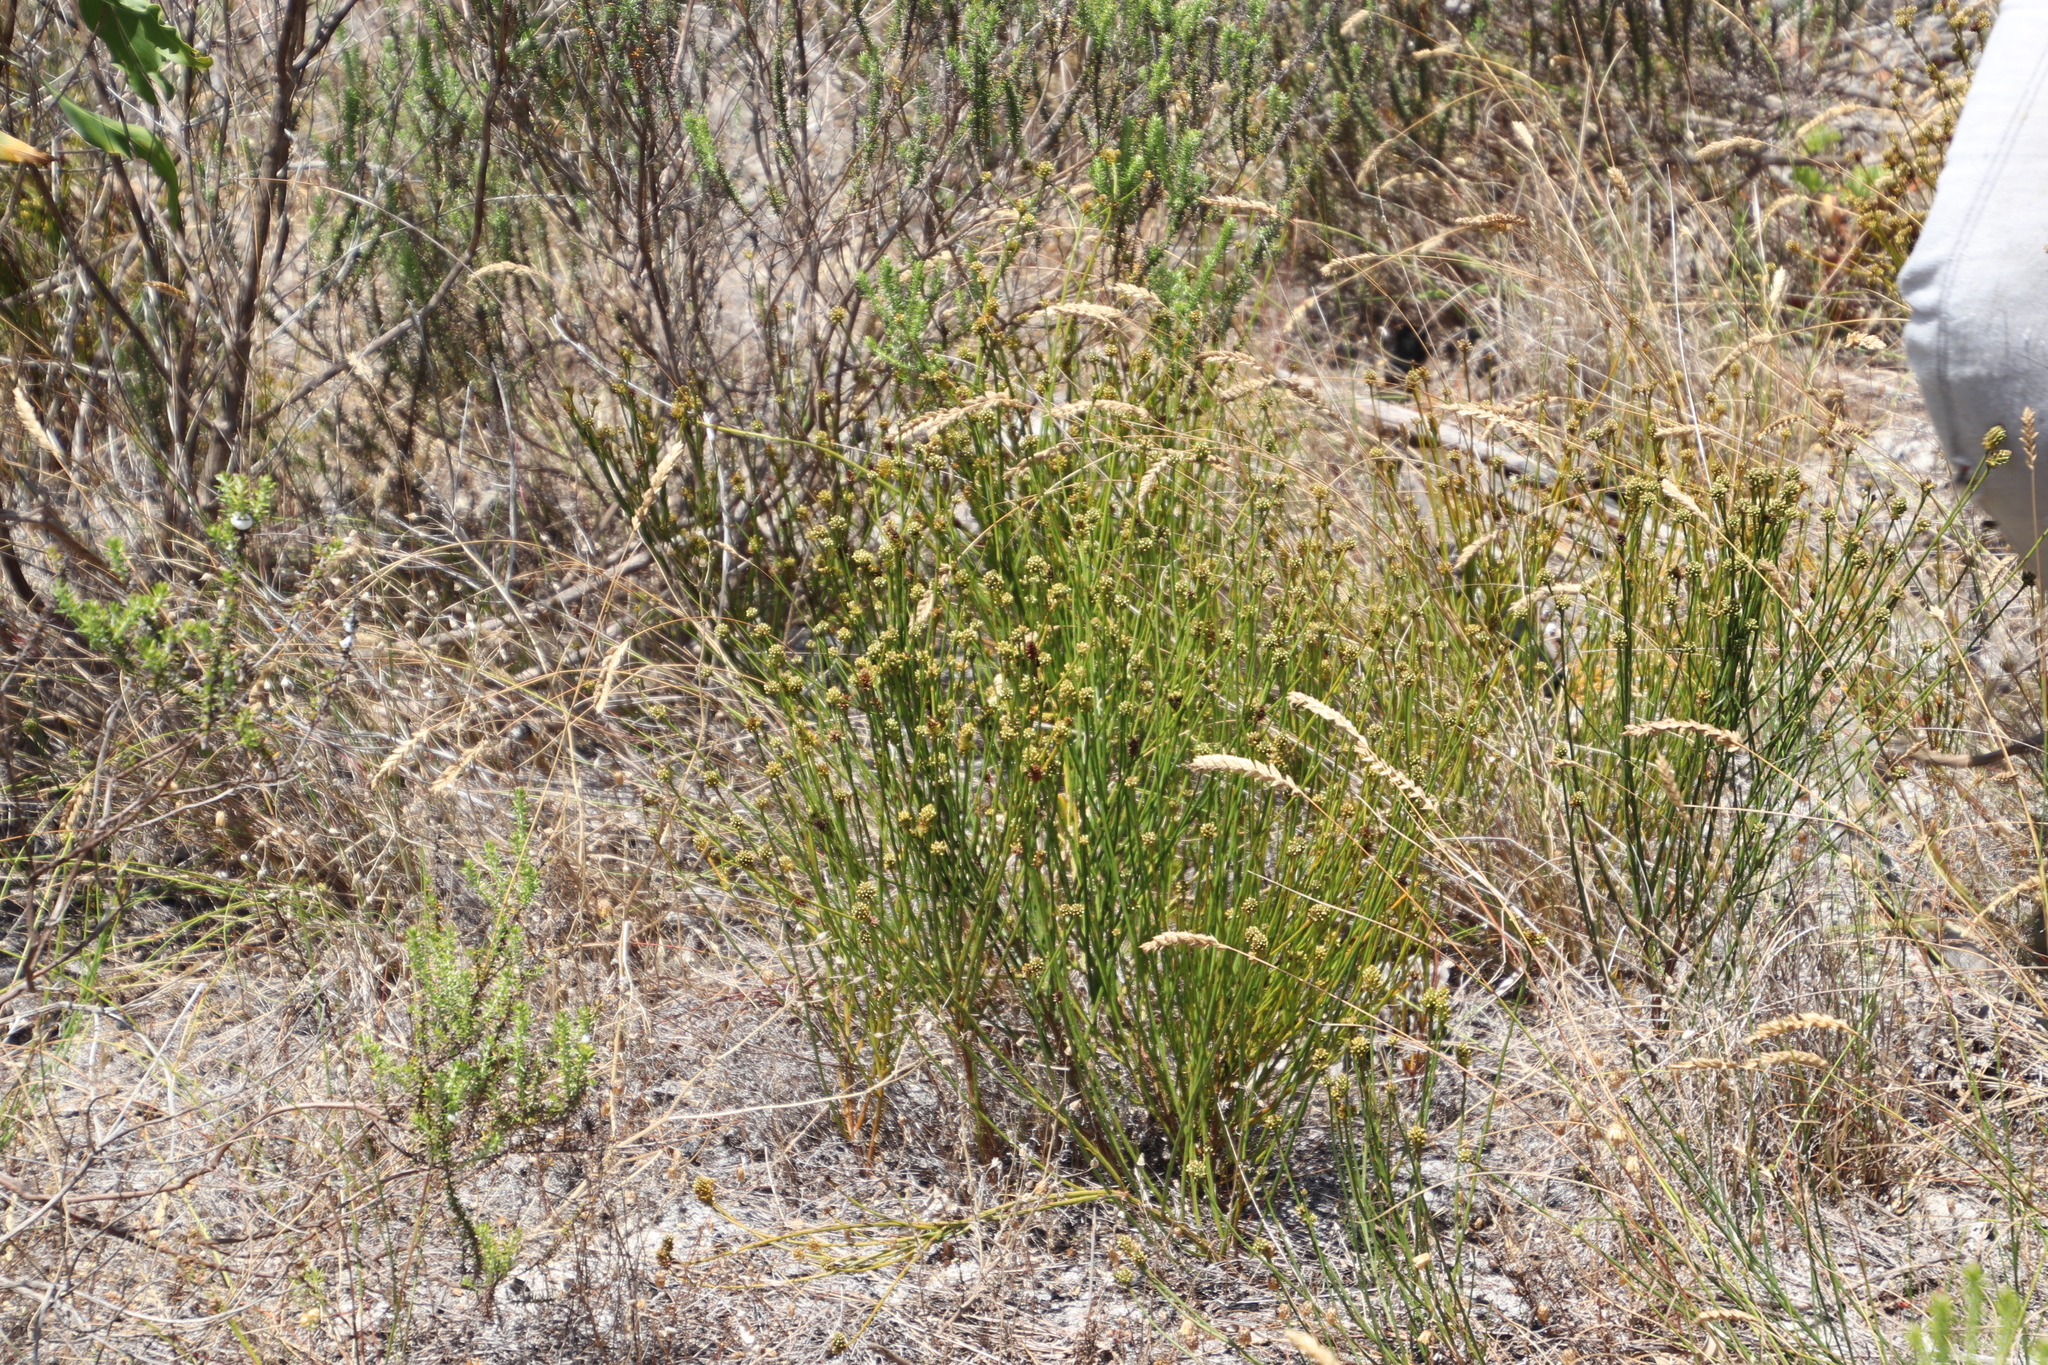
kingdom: Plantae
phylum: Tracheophyta
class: Magnoliopsida
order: Santalales
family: Thesiaceae
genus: Thesium
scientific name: Thesium aggregatum
